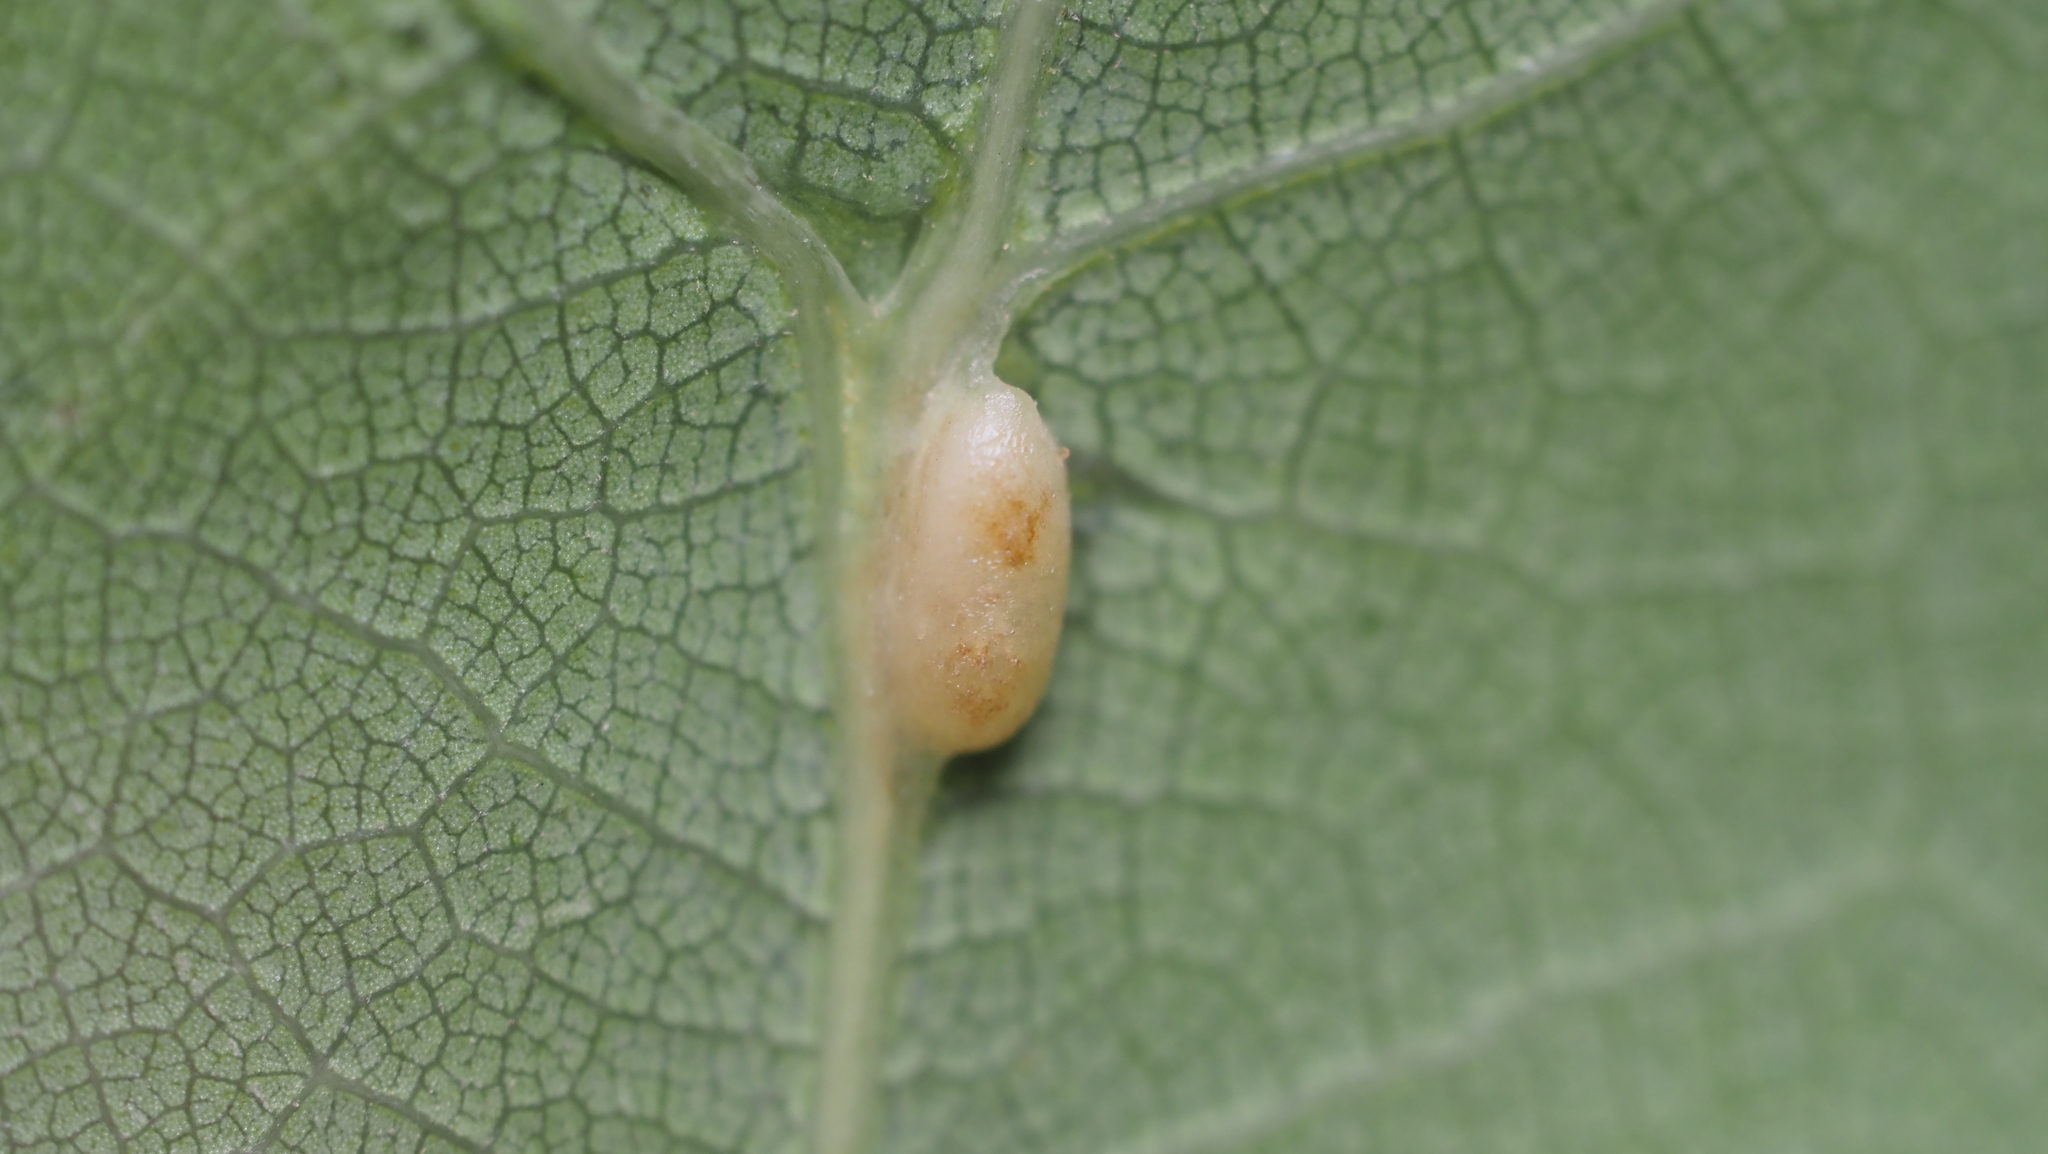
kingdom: Animalia
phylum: Arthropoda
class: Insecta
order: Hymenoptera
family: Cynipidae
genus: Callirhytis
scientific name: Callirhytis
